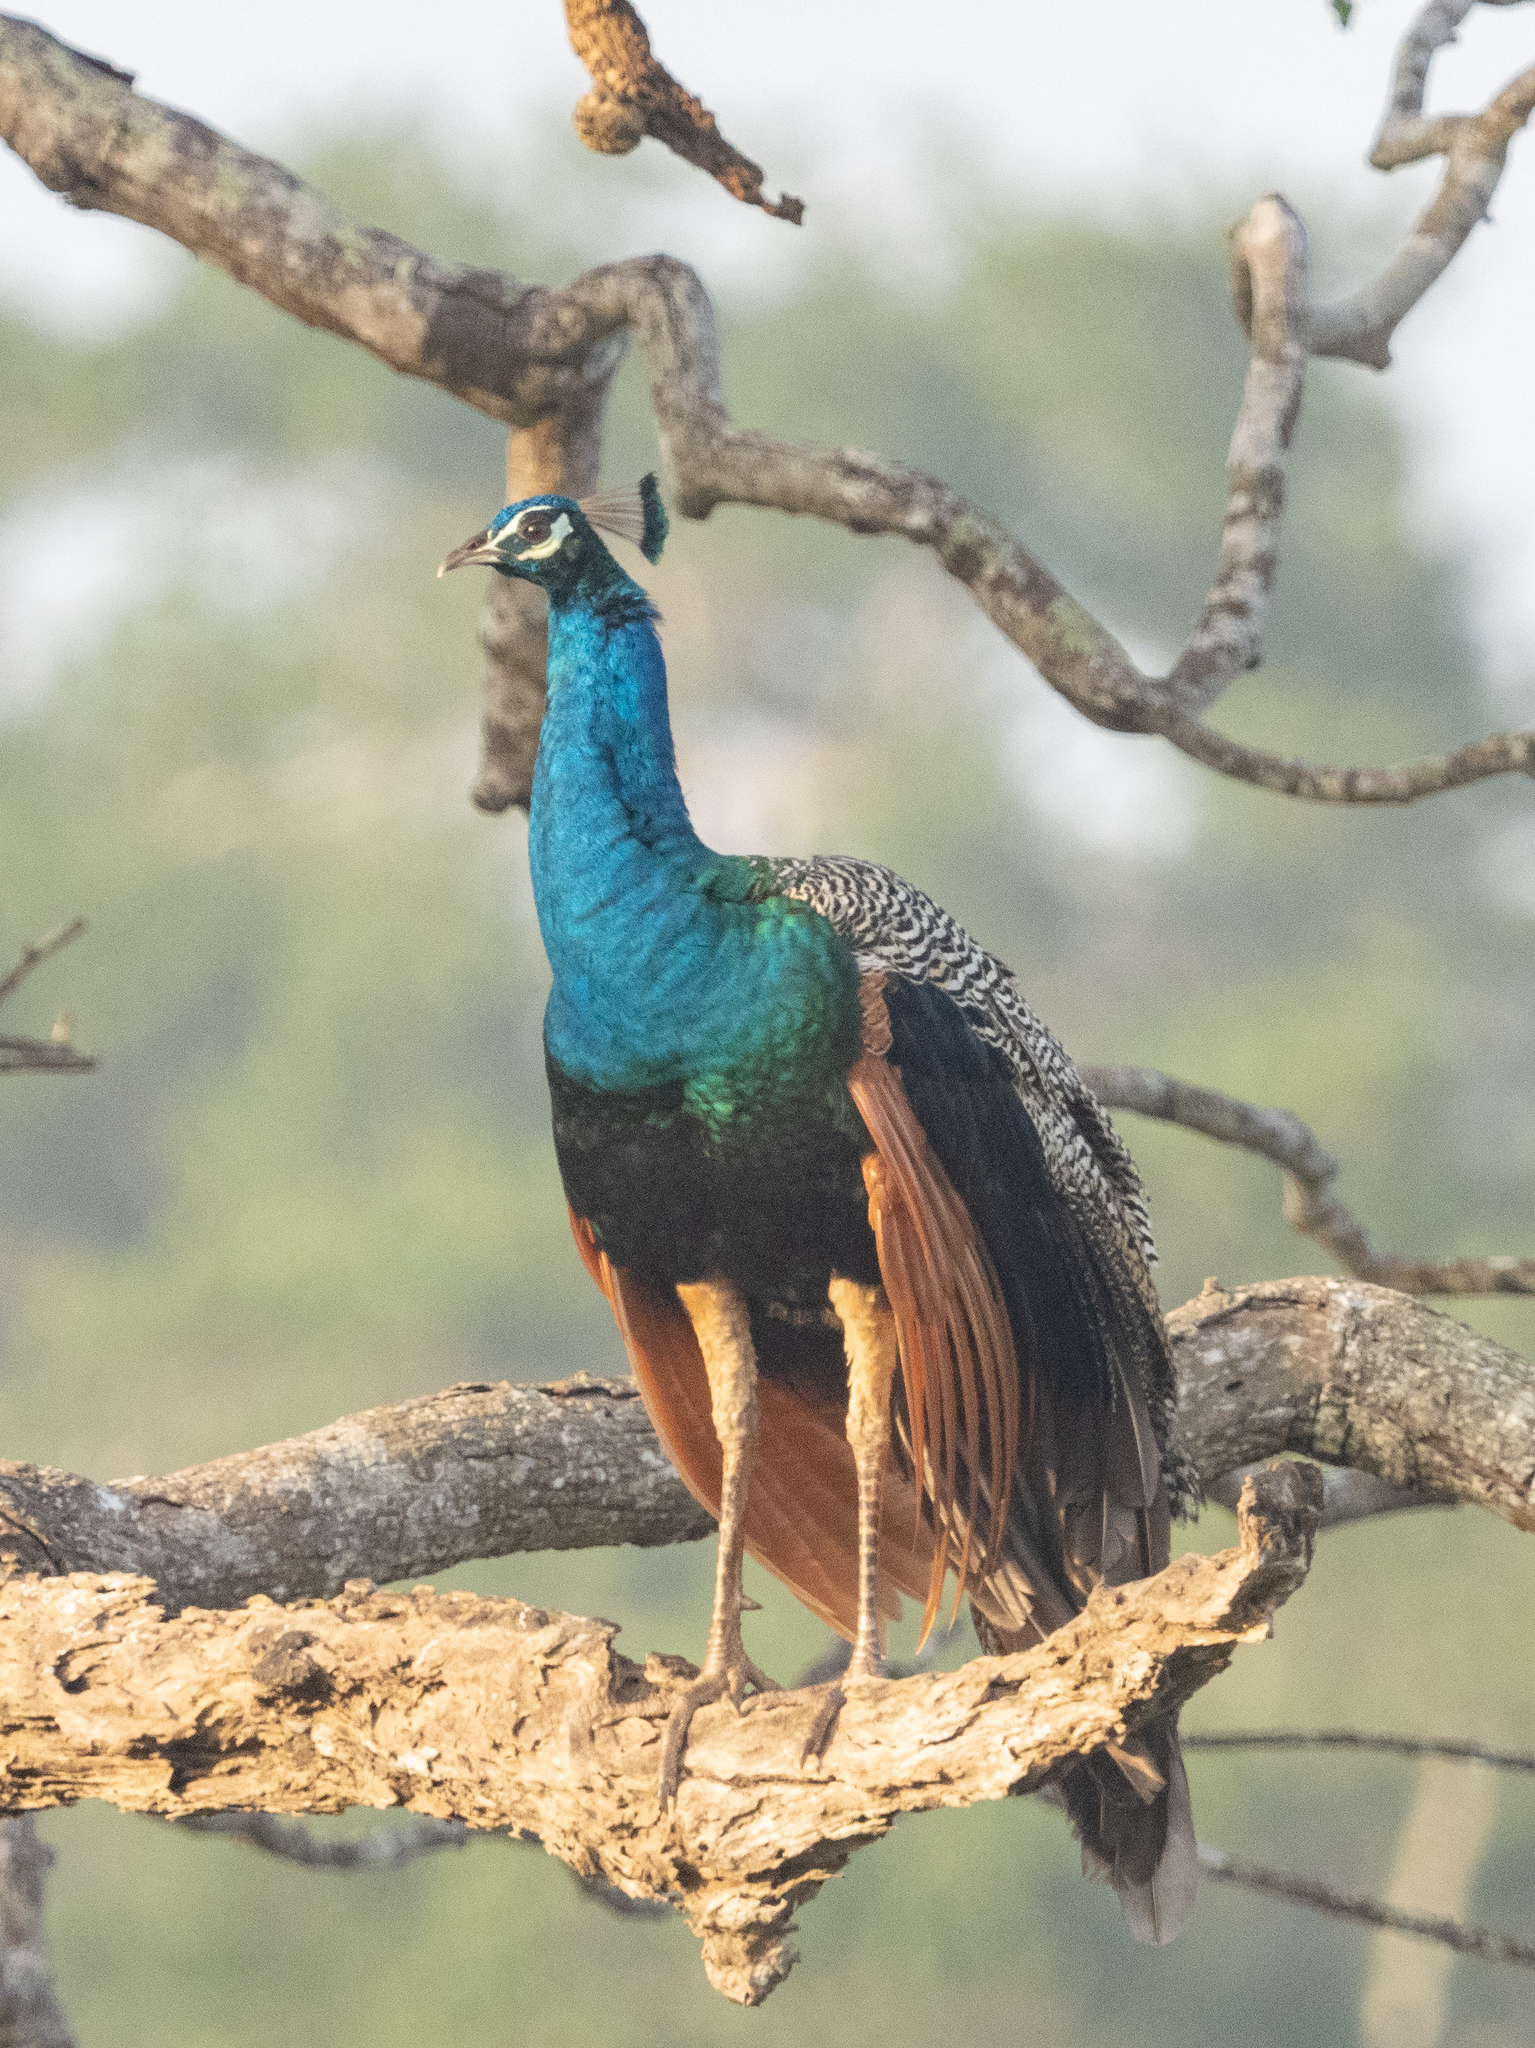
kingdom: Animalia
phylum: Chordata
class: Aves
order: Galliformes
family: Phasianidae
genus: Pavo
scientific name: Pavo cristatus
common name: Indian peafowl
